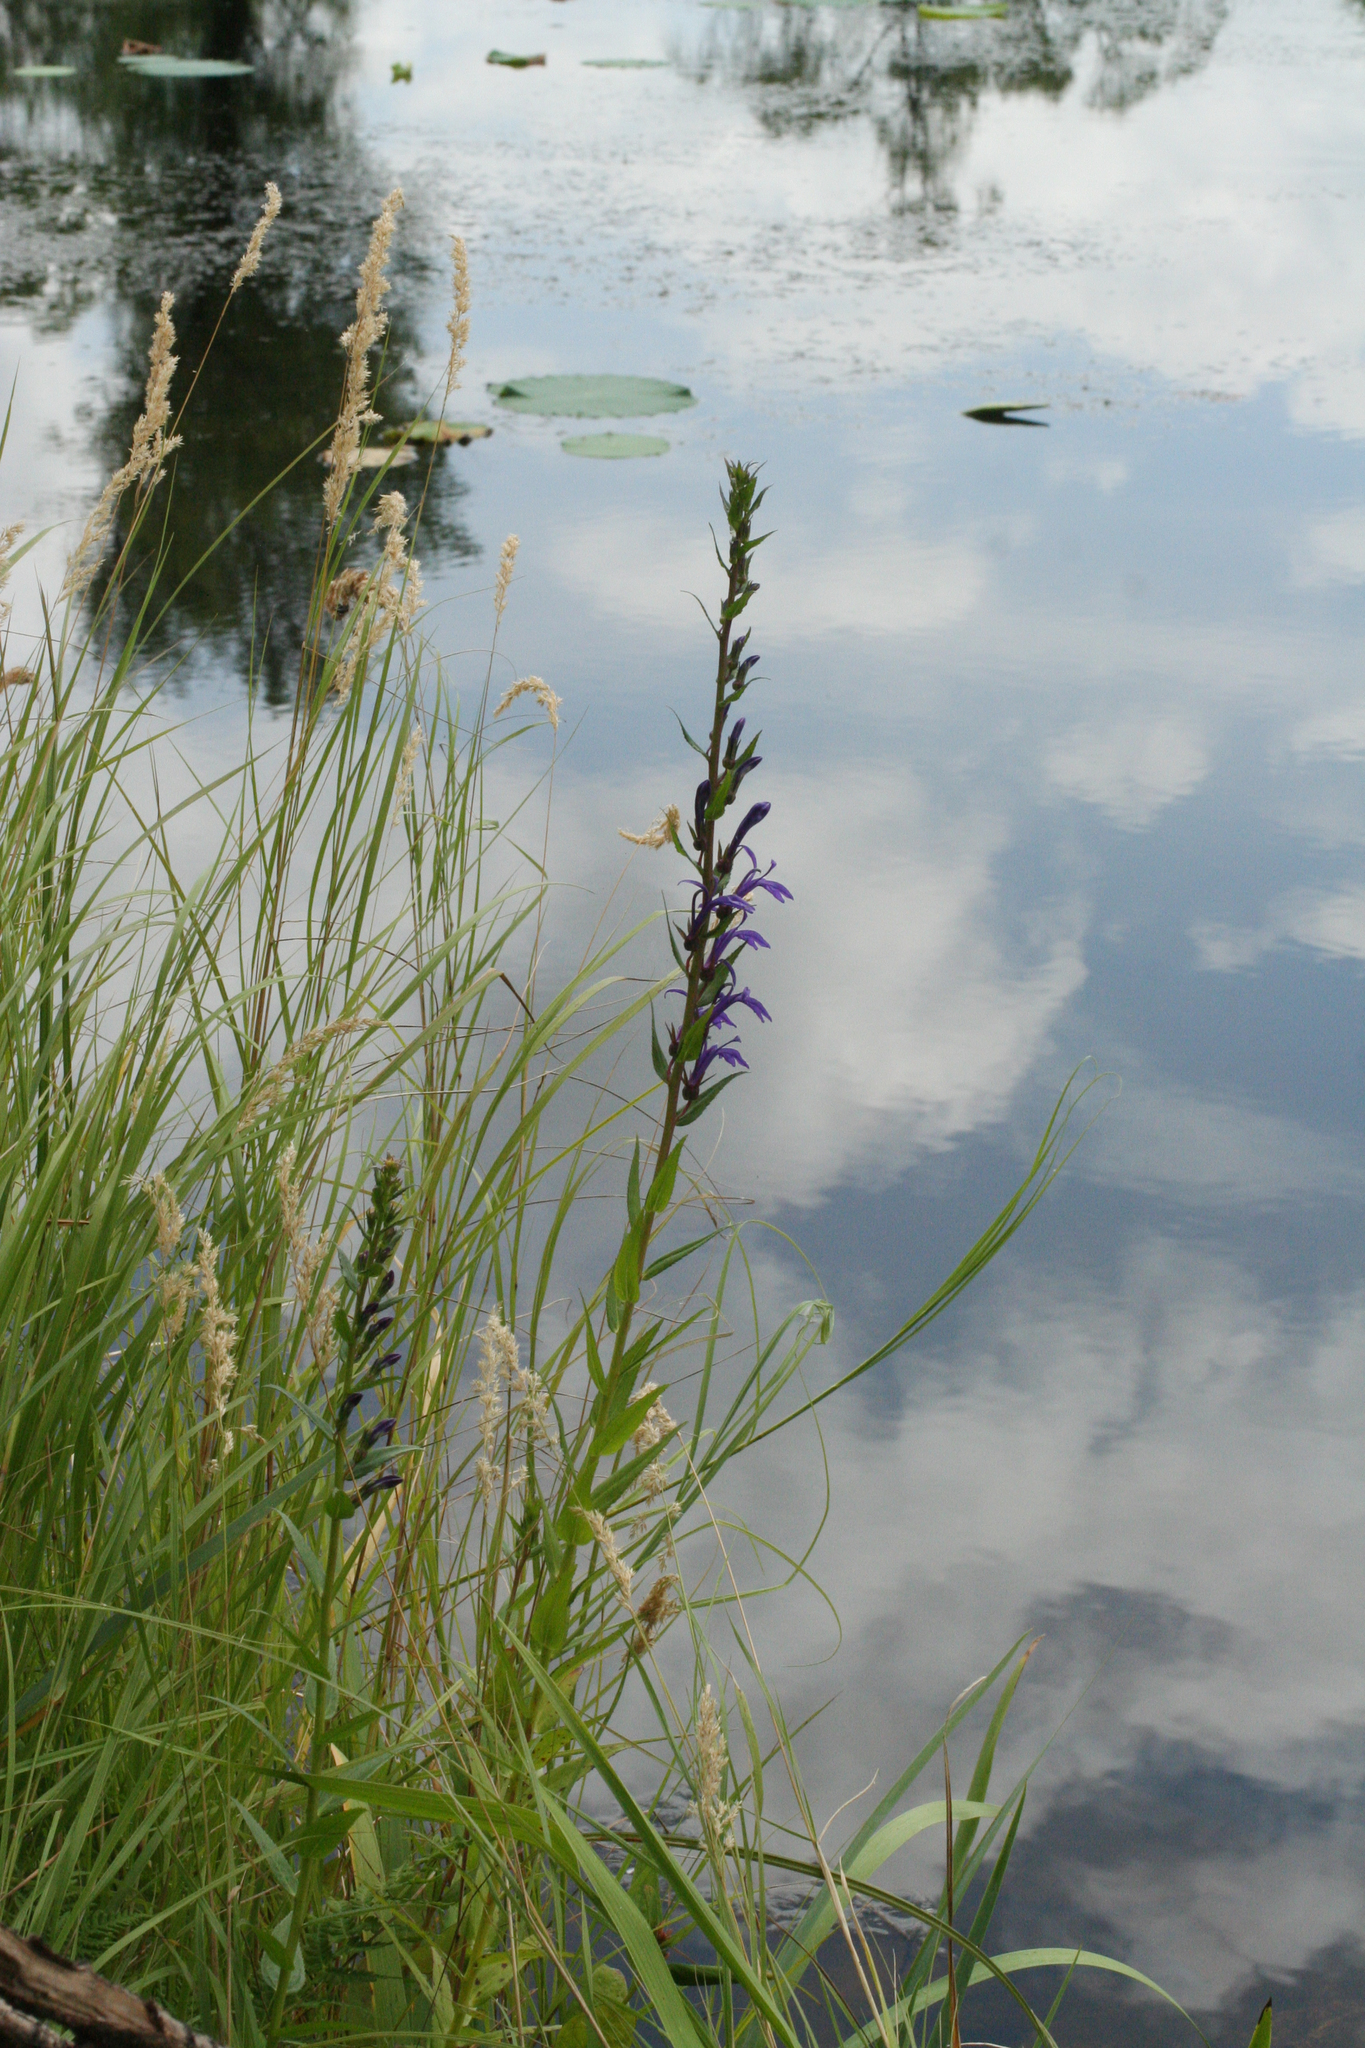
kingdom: Plantae
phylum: Tracheophyta
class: Magnoliopsida
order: Asterales
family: Campanulaceae
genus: Lobelia
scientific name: Lobelia sessilifolia
